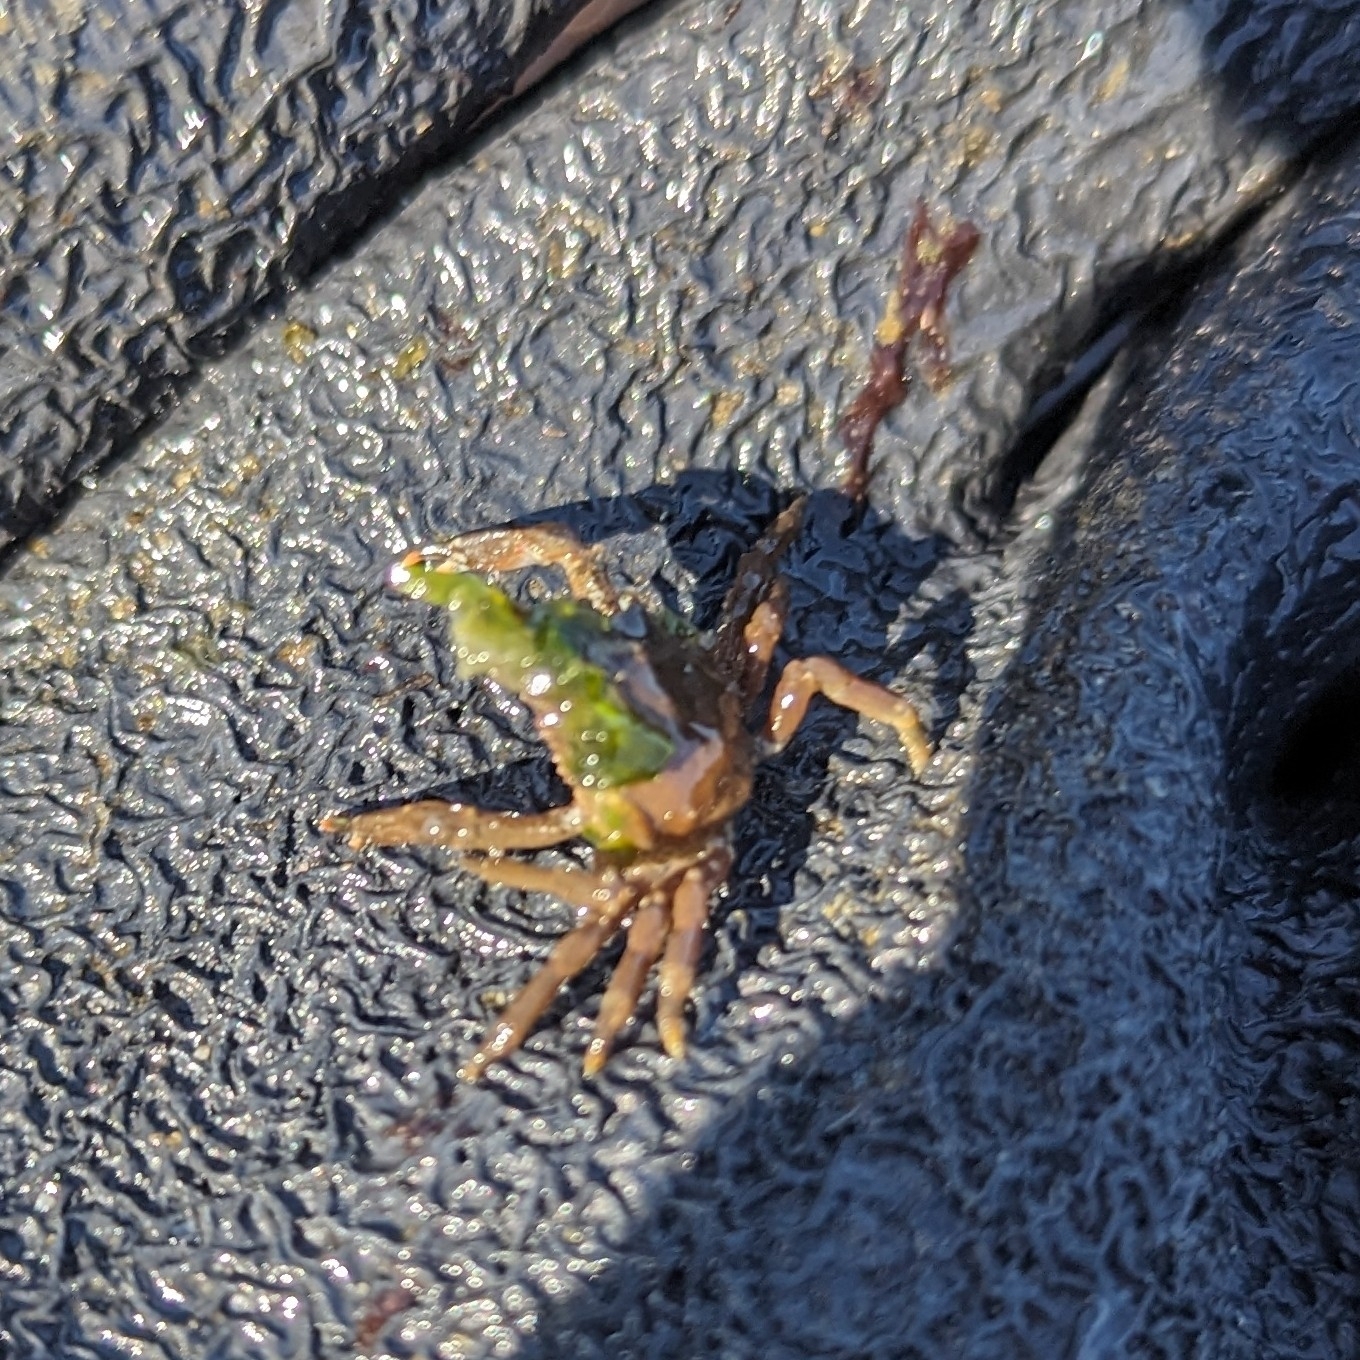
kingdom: Animalia
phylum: Arthropoda
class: Malacostraca
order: Decapoda
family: Epialtidae
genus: Pugettia
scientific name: Pugettia gracilis
